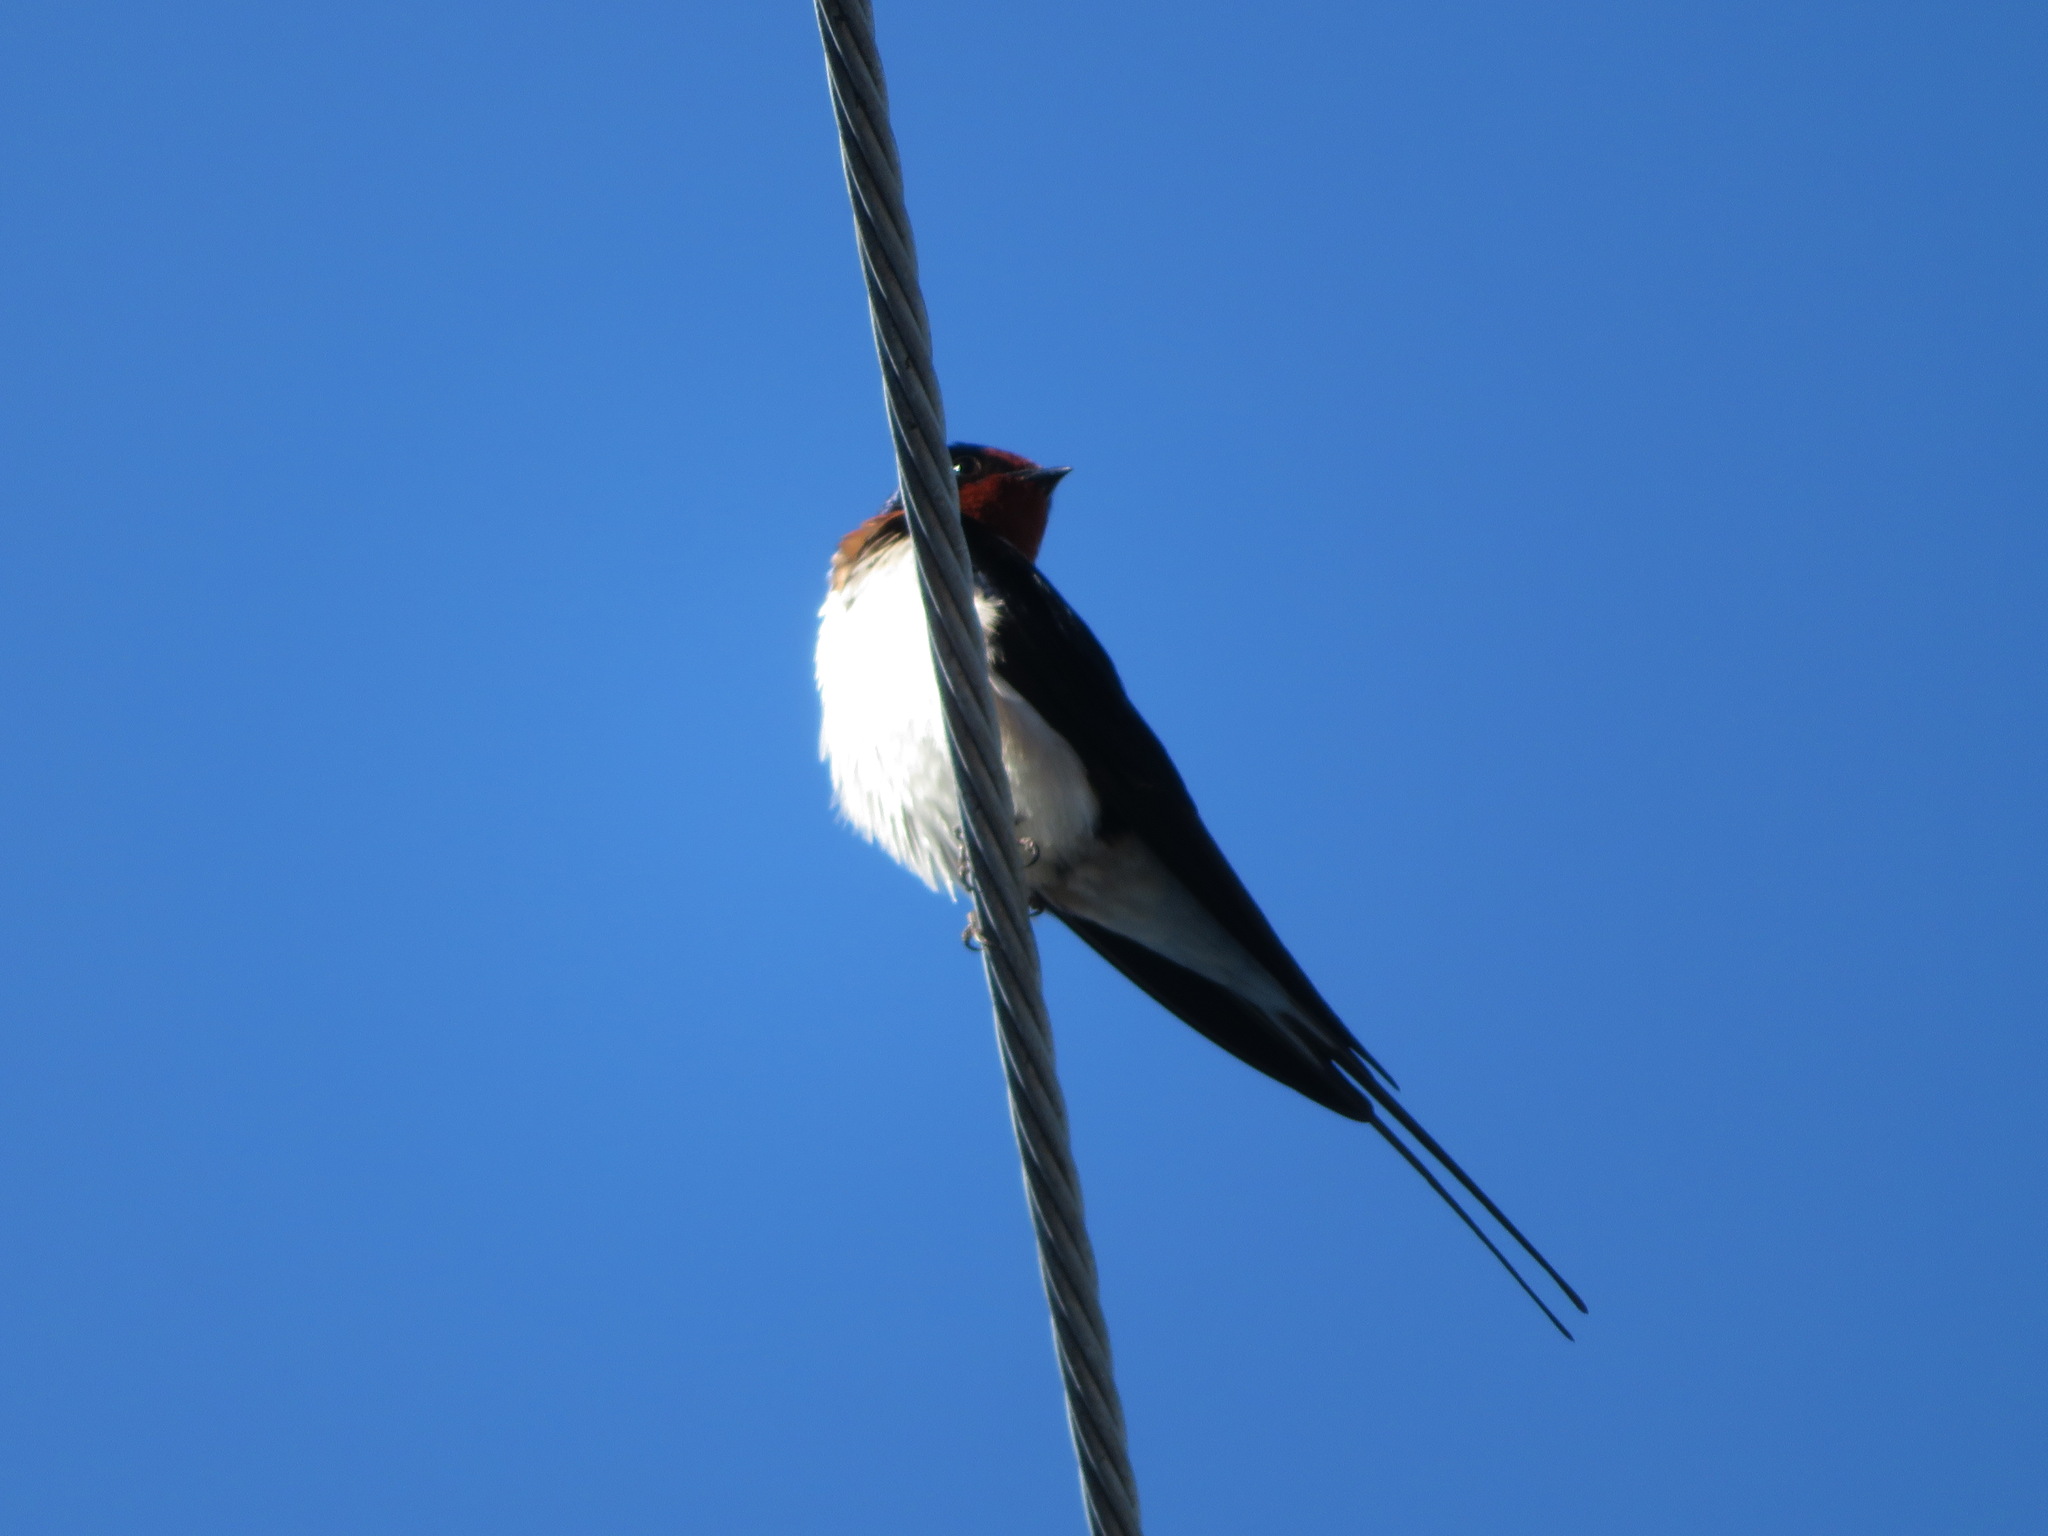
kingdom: Animalia
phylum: Chordata
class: Aves
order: Passeriformes
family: Hirundinidae
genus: Hirundo
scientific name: Hirundo rustica
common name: Barn swallow
